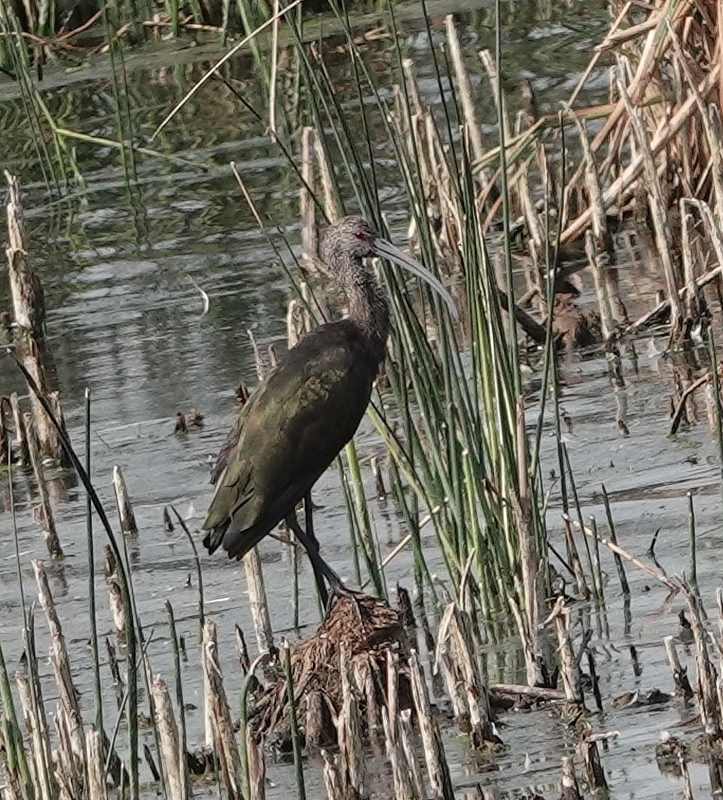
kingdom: Animalia
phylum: Chordata
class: Aves
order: Pelecaniformes
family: Threskiornithidae
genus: Plegadis
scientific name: Plegadis chihi
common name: White-faced ibis
